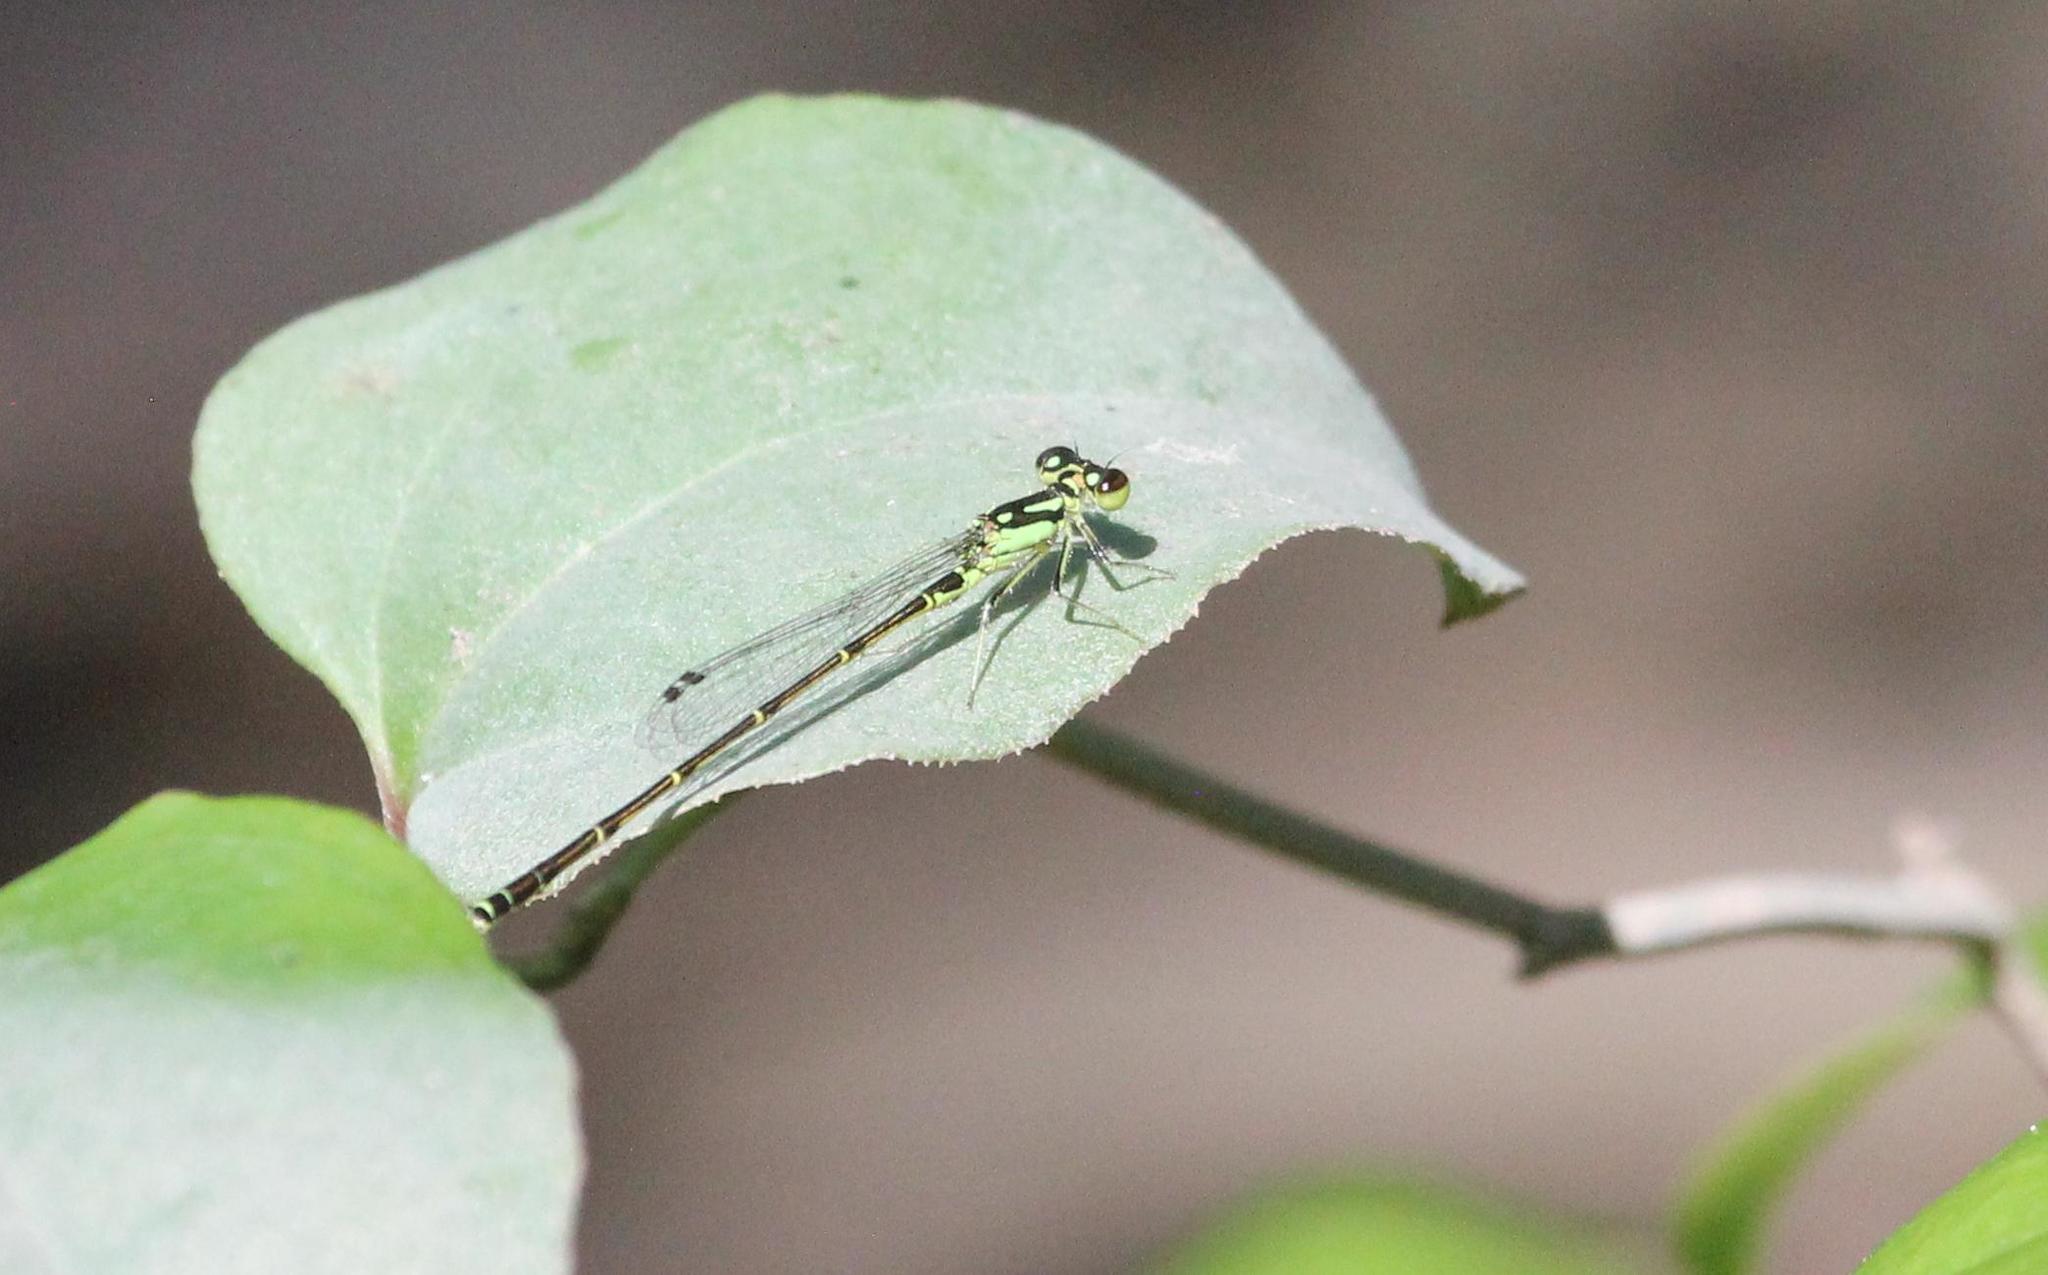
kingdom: Animalia
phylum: Arthropoda
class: Insecta
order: Odonata
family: Coenagrionidae
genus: Ischnura
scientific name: Ischnura posita
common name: Fragile forktail
